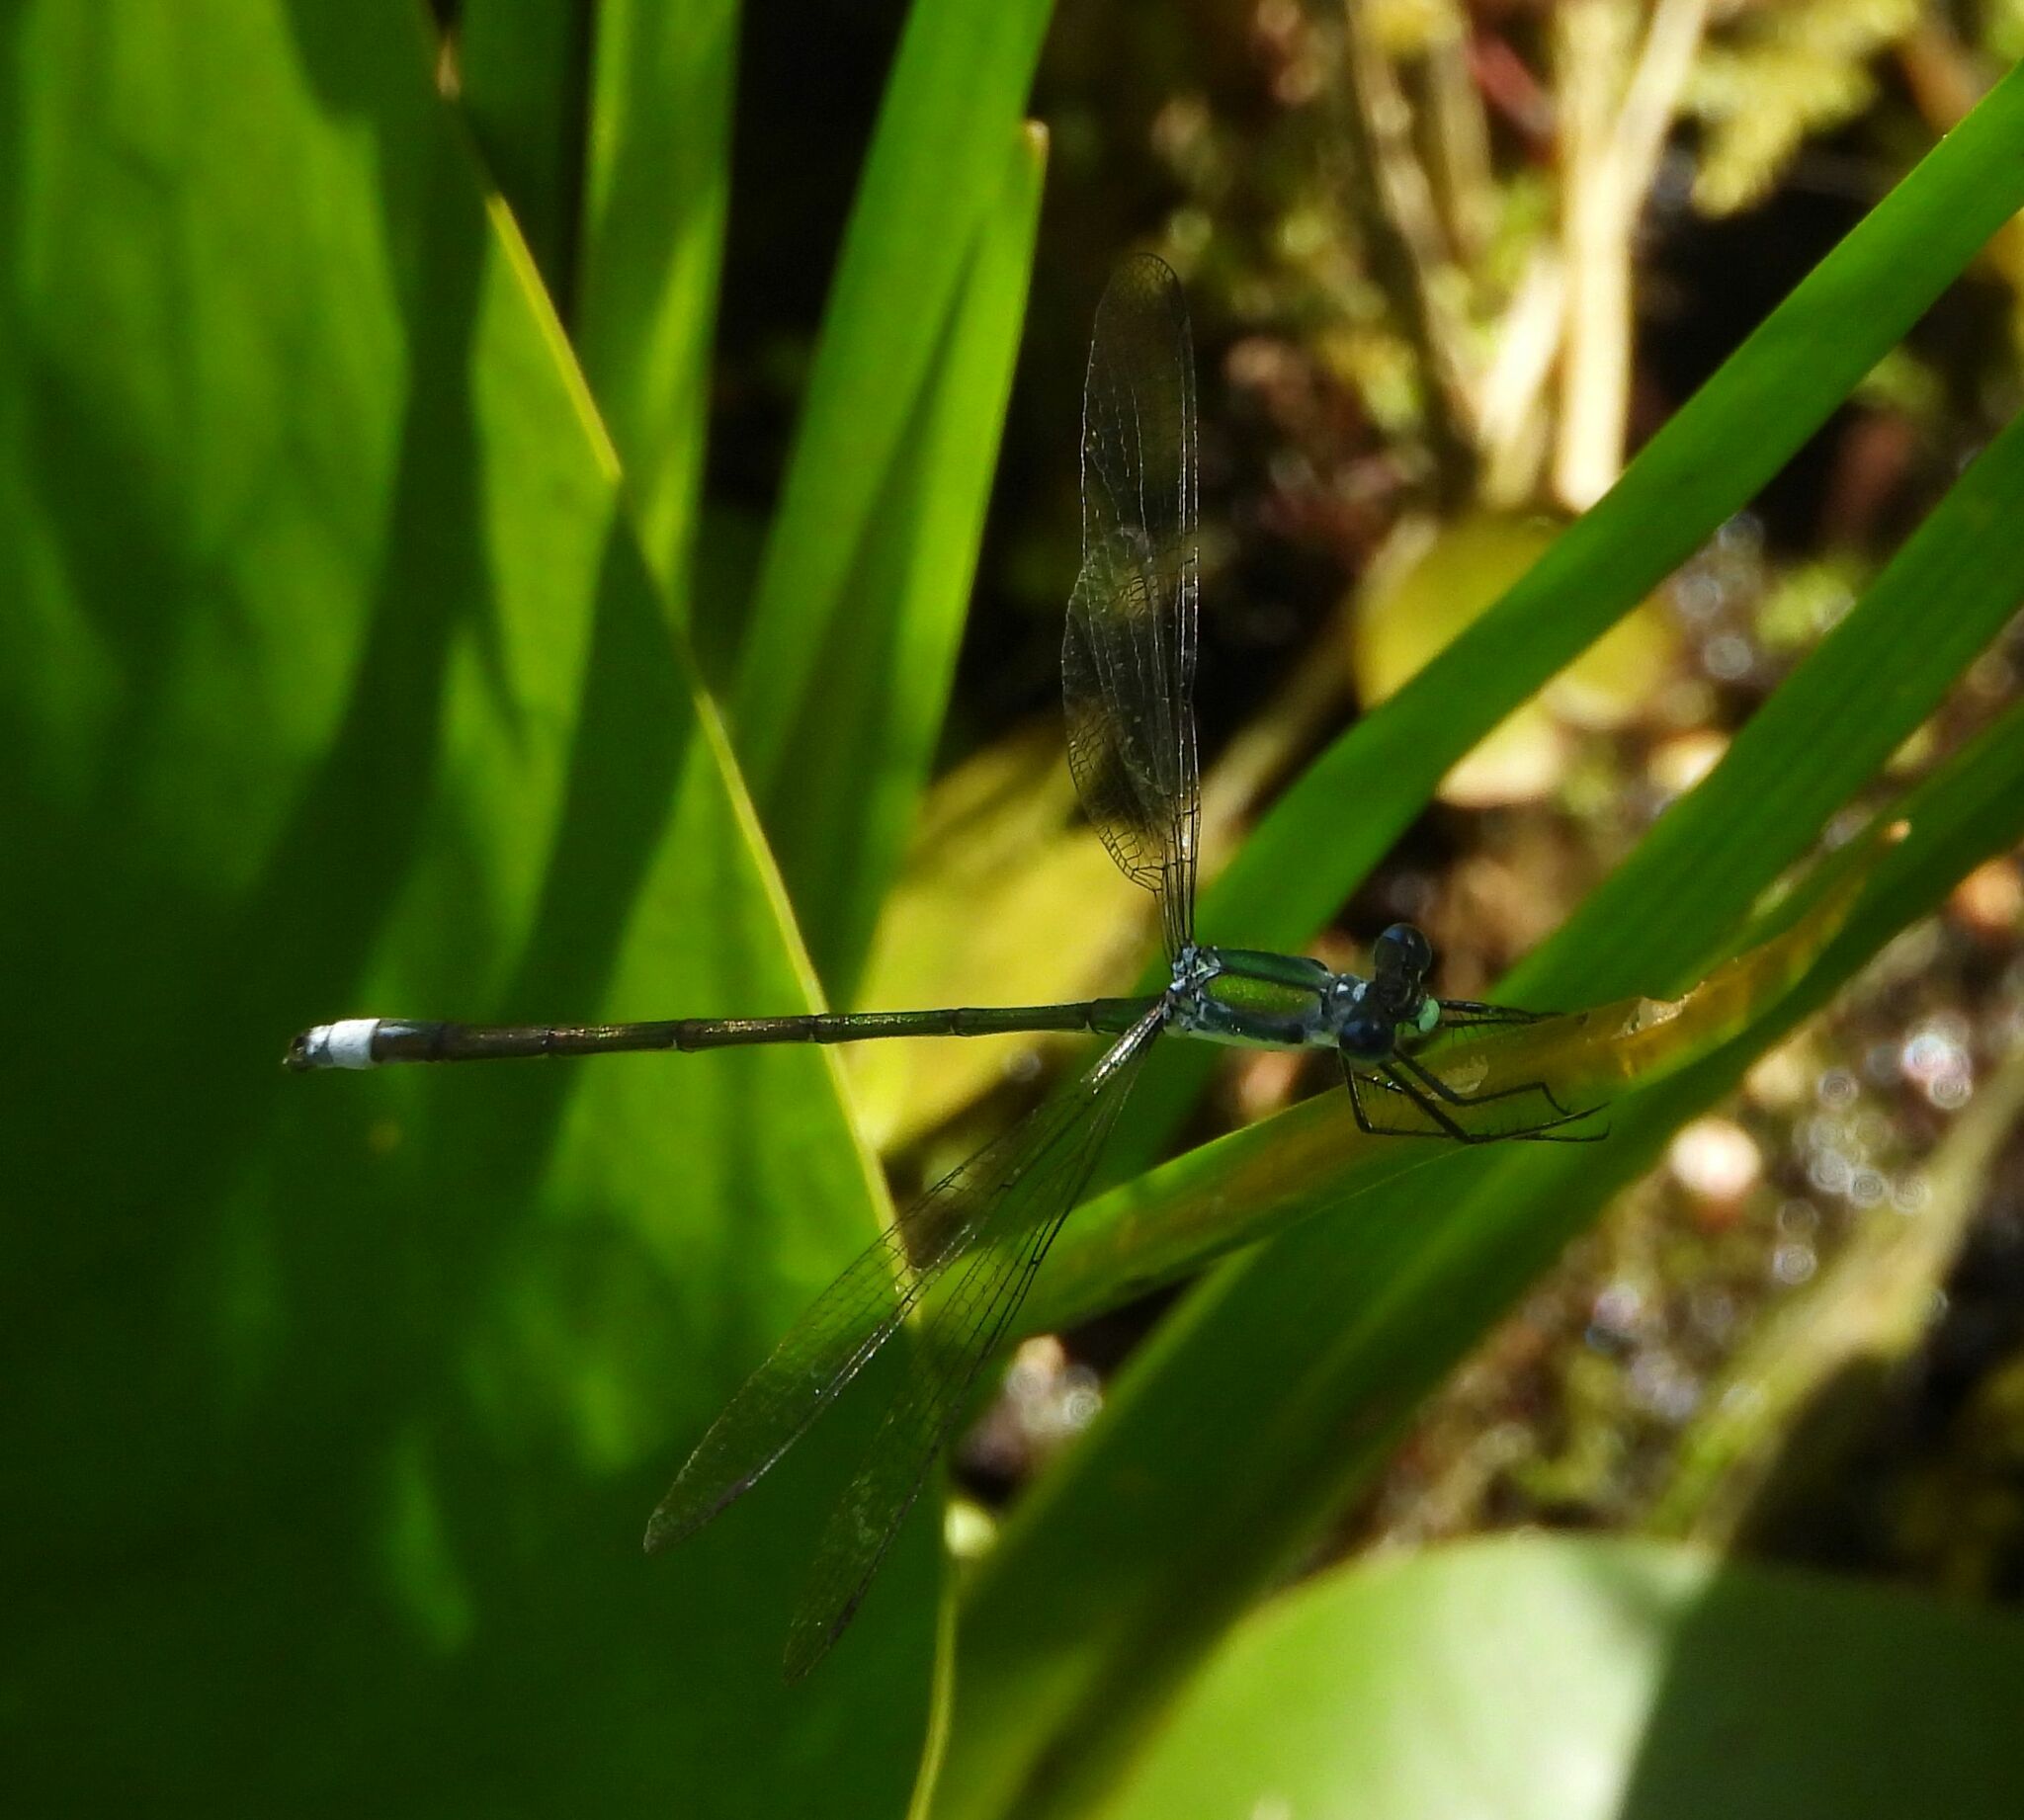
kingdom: Animalia
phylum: Arthropoda
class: Insecta
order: Odonata
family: Lestidae
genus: Lestes
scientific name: Lestes inaequalis
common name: Elegant spreadwing
